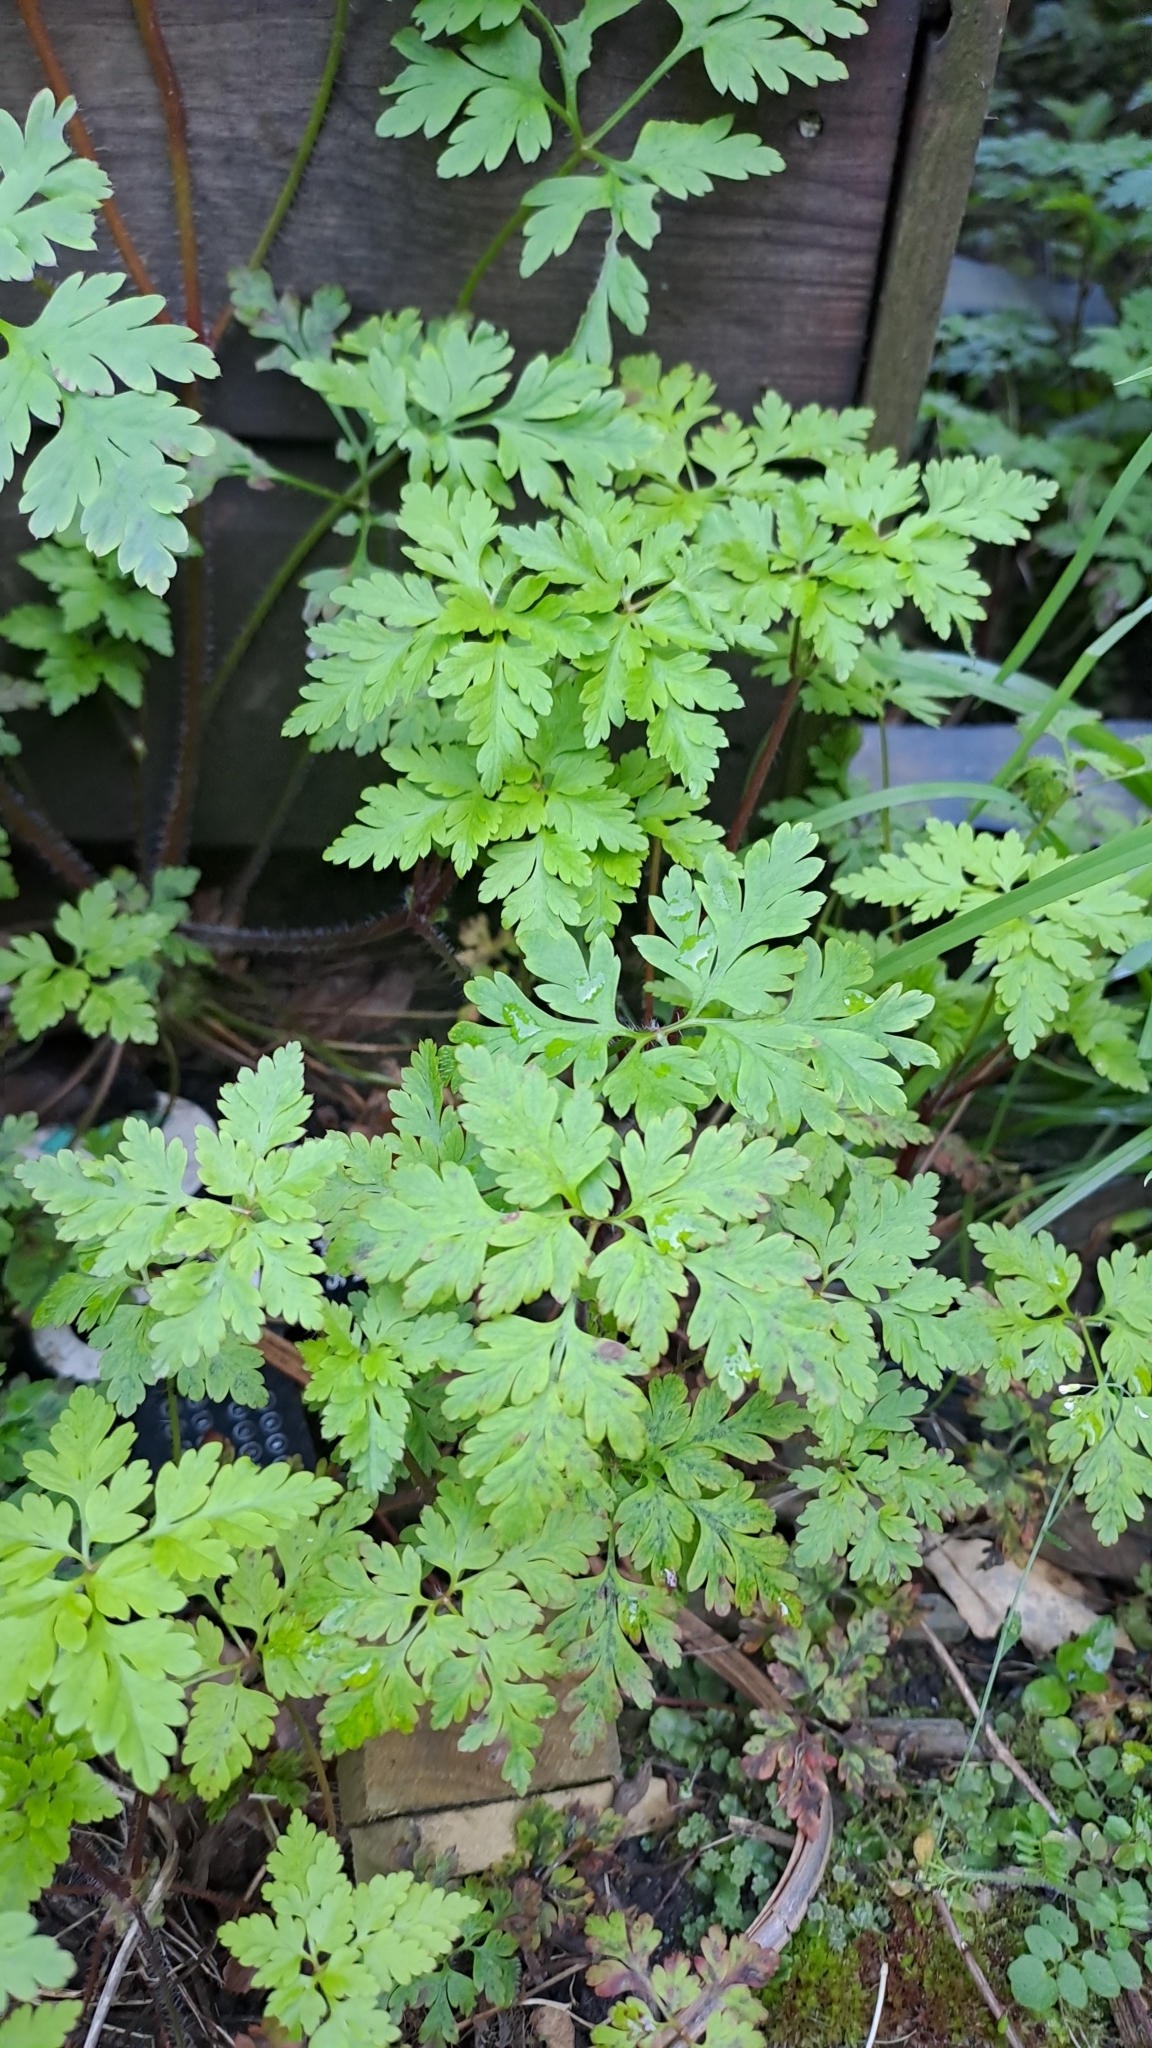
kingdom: Plantae
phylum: Tracheophyta
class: Magnoliopsida
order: Geraniales
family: Geraniaceae
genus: Geranium
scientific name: Geranium robertianum
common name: Herb-robert
